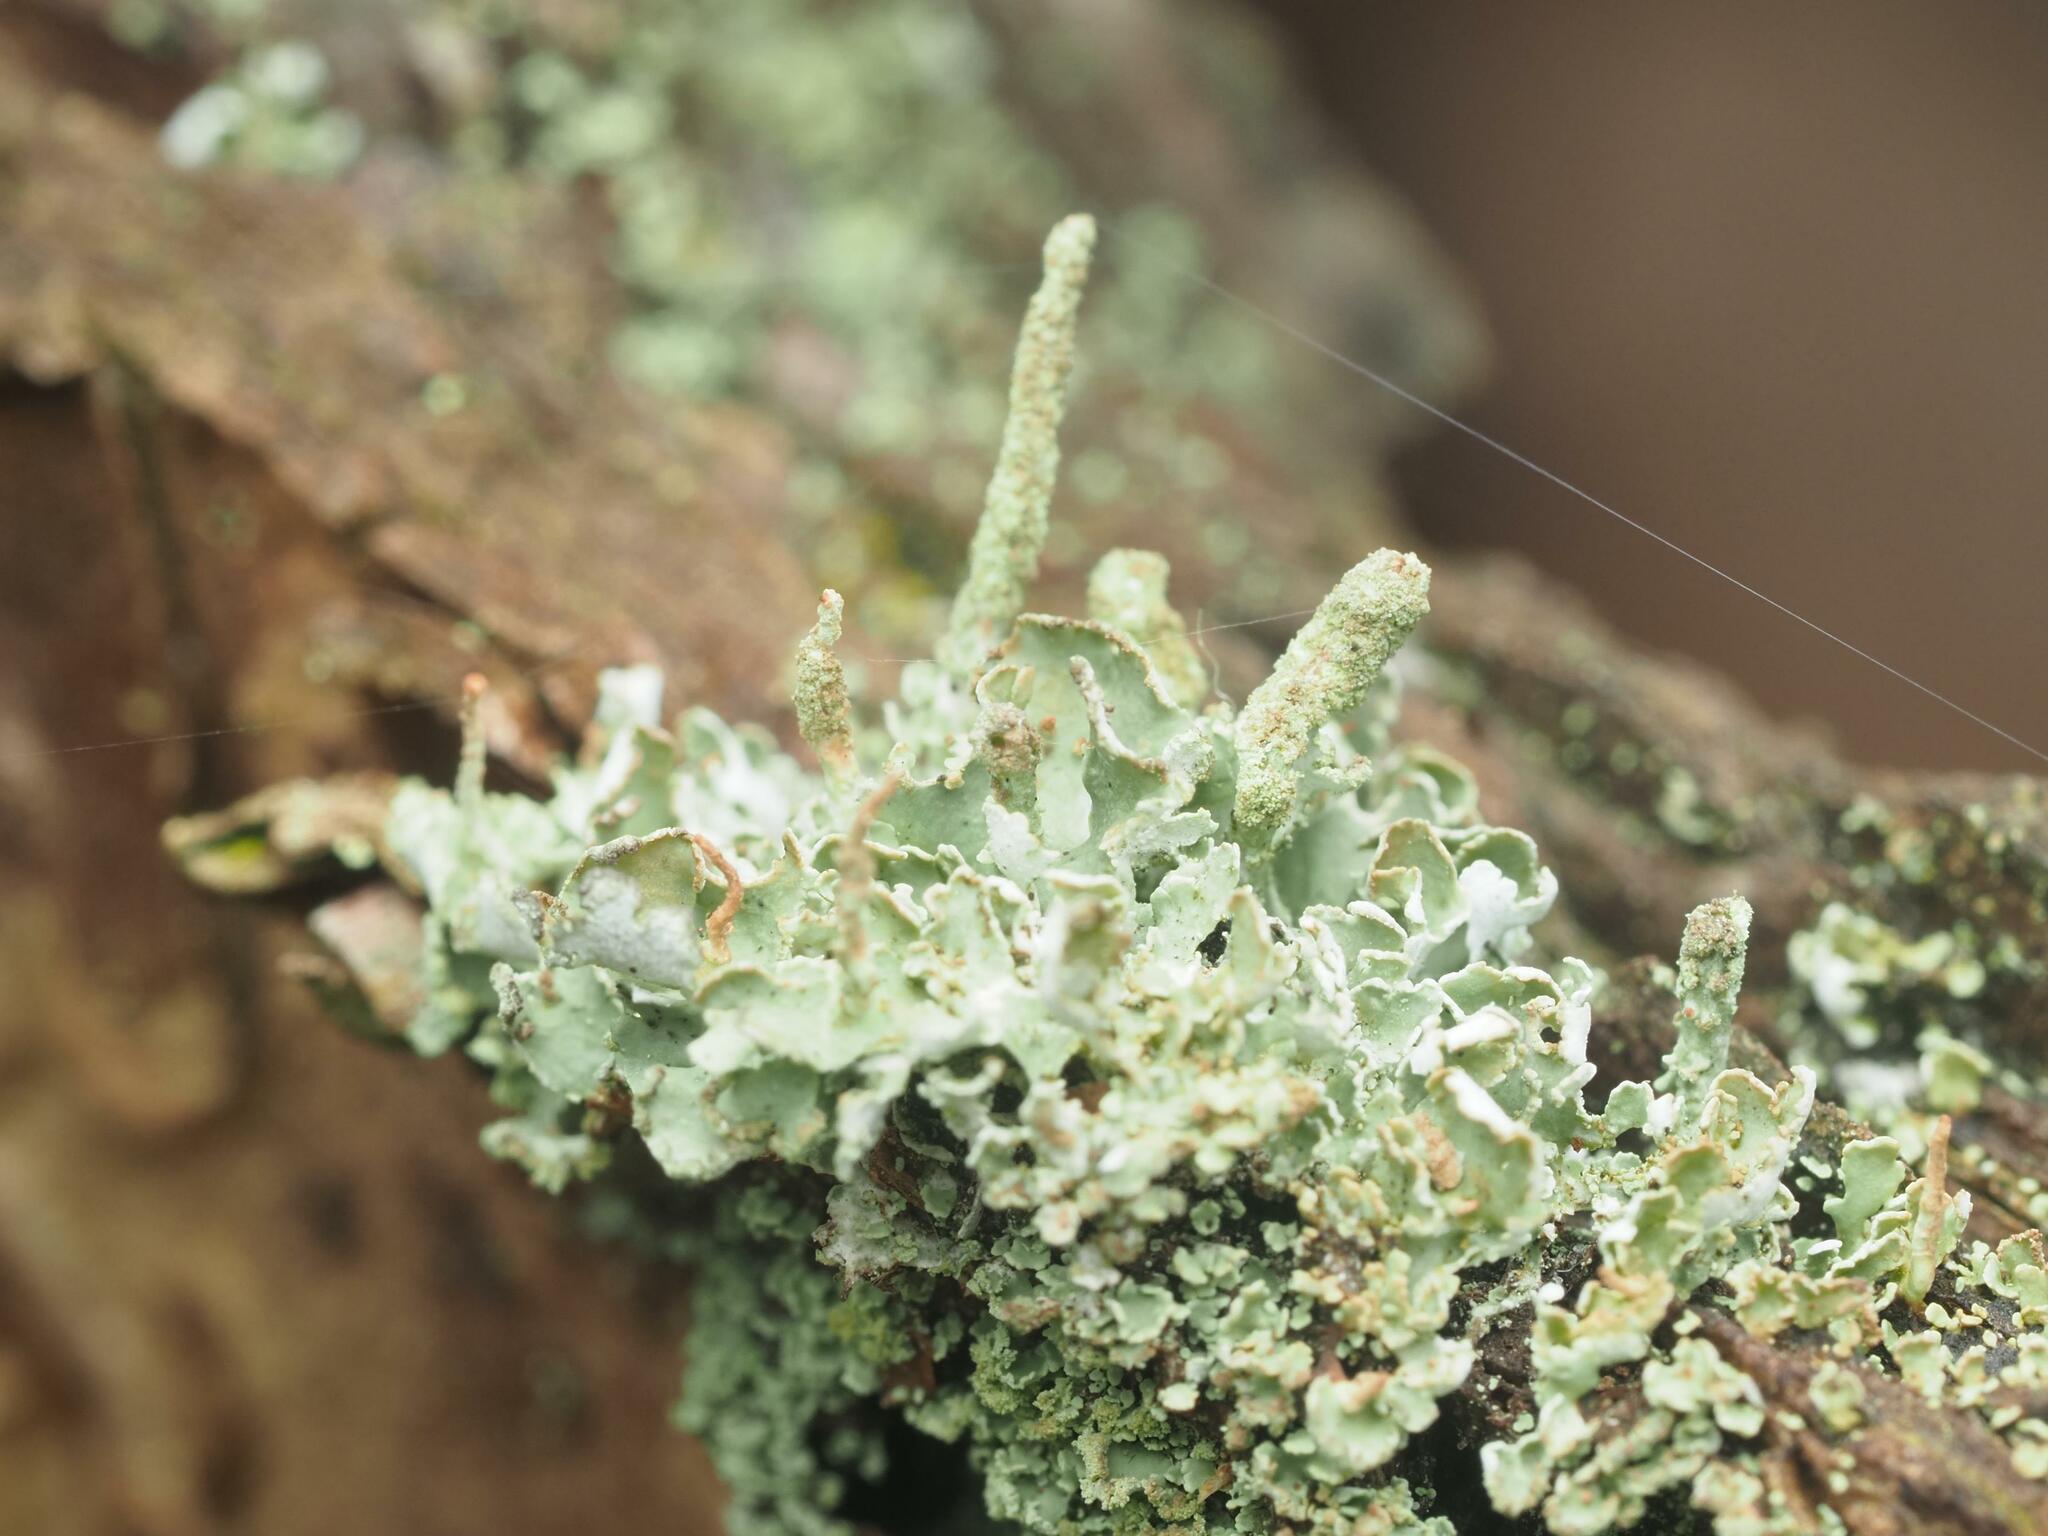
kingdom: Fungi
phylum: Ascomycota
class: Lecanoromycetes
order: Lecanorales
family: Cladoniaceae
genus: Cladonia
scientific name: Cladonia digitata
